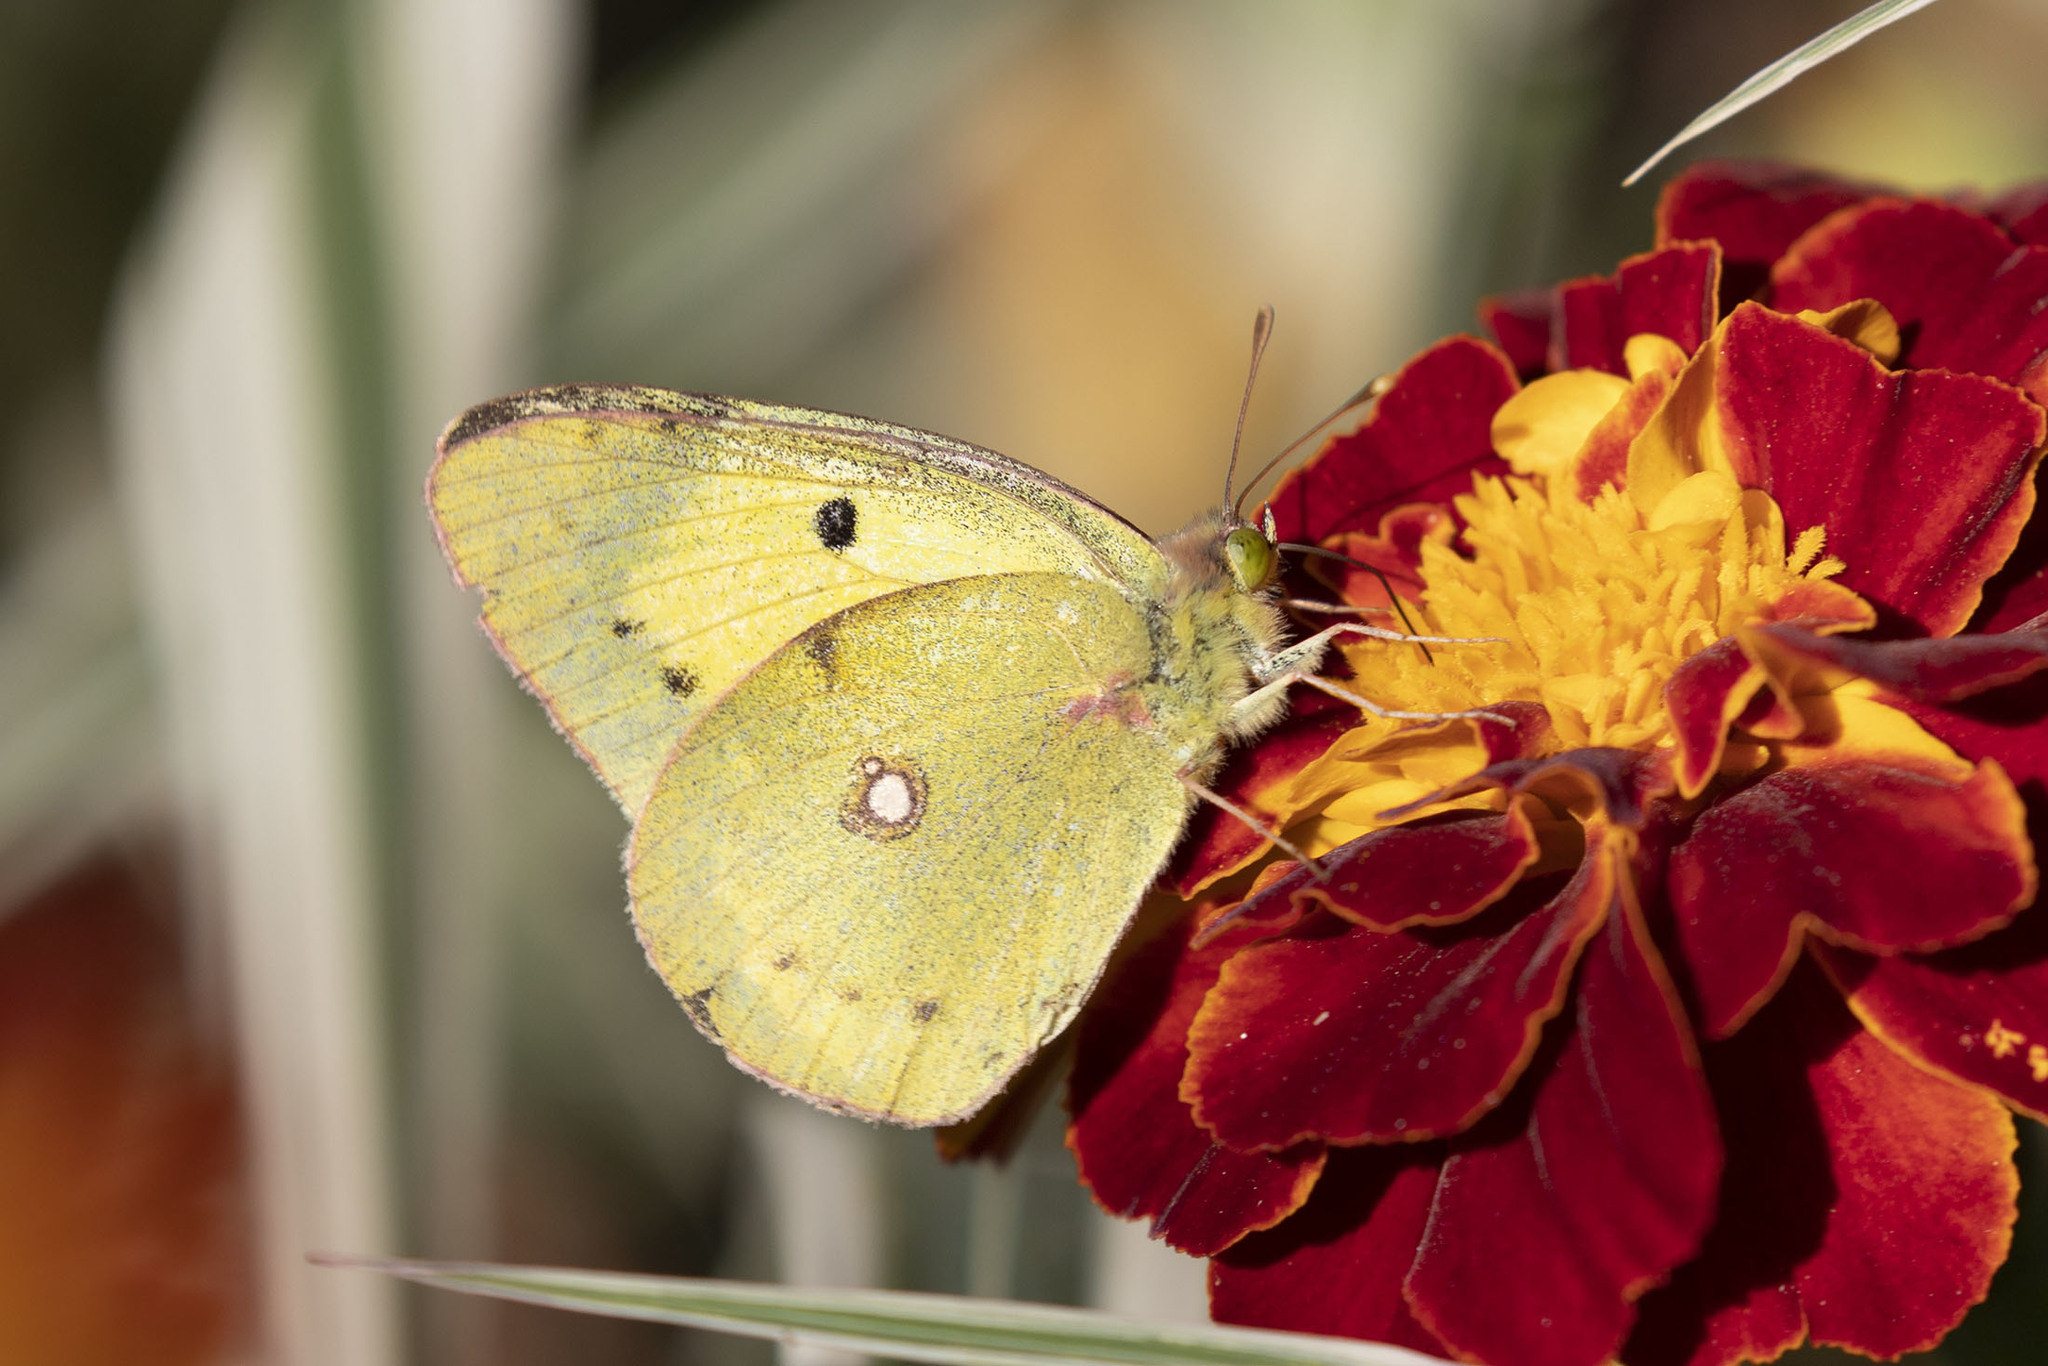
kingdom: Animalia
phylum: Arthropoda
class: Insecta
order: Lepidoptera
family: Pieridae
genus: Colias
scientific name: Colias croceus
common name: Clouded yellow
